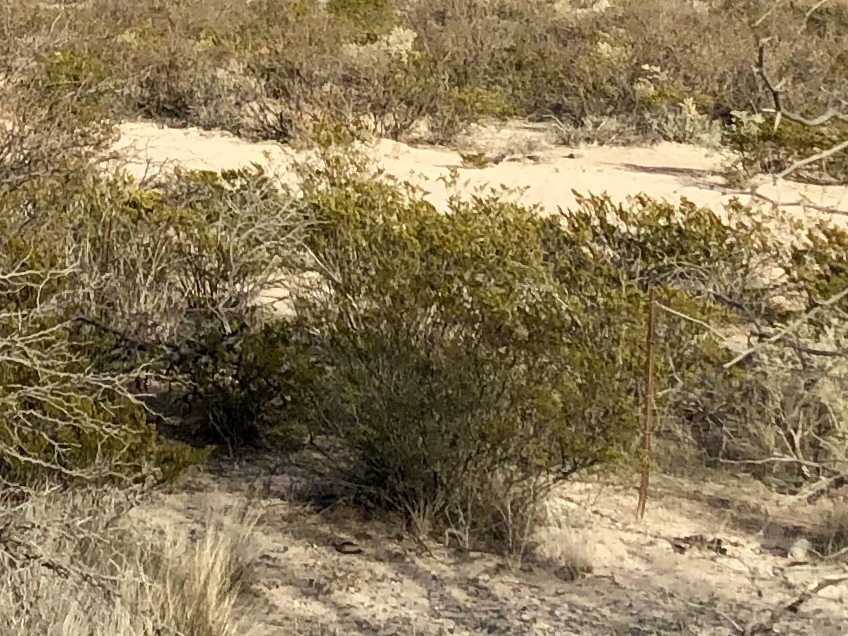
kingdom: Plantae
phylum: Tracheophyta
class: Magnoliopsida
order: Zygophyllales
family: Zygophyllaceae
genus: Larrea
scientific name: Larrea tridentata
